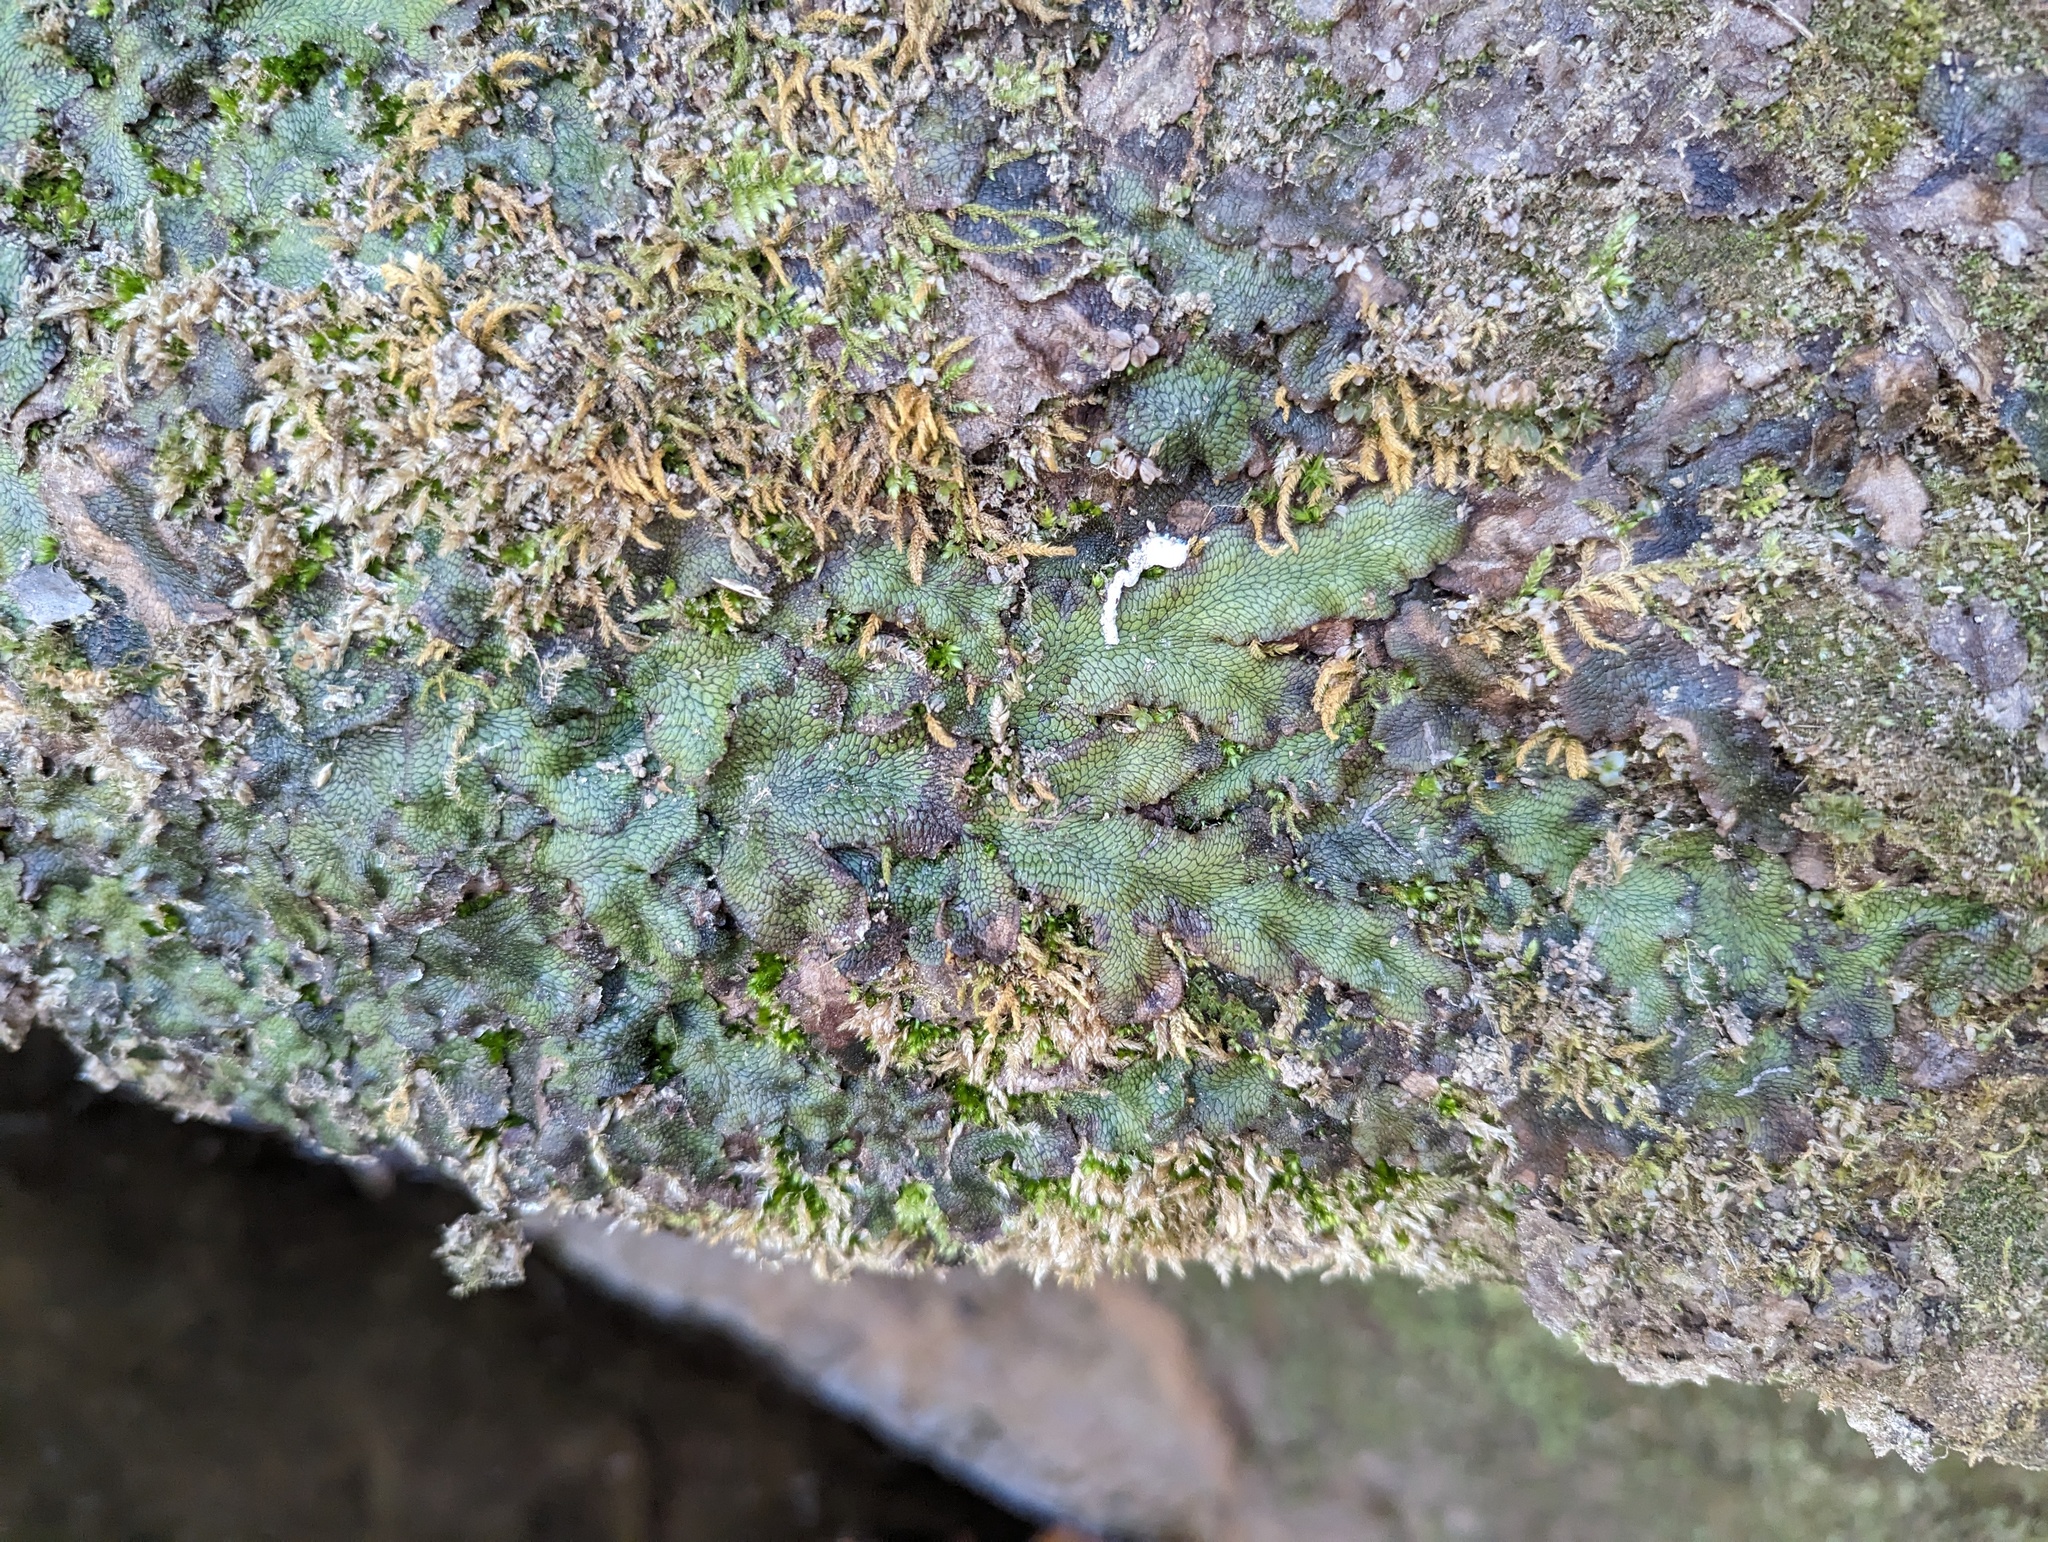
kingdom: Plantae
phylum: Marchantiophyta
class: Marchantiopsida
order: Marchantiales
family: Conocephalaceae
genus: Conocephalum
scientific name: Conocephalum salebrosum
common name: Cat-tongue liverwort
